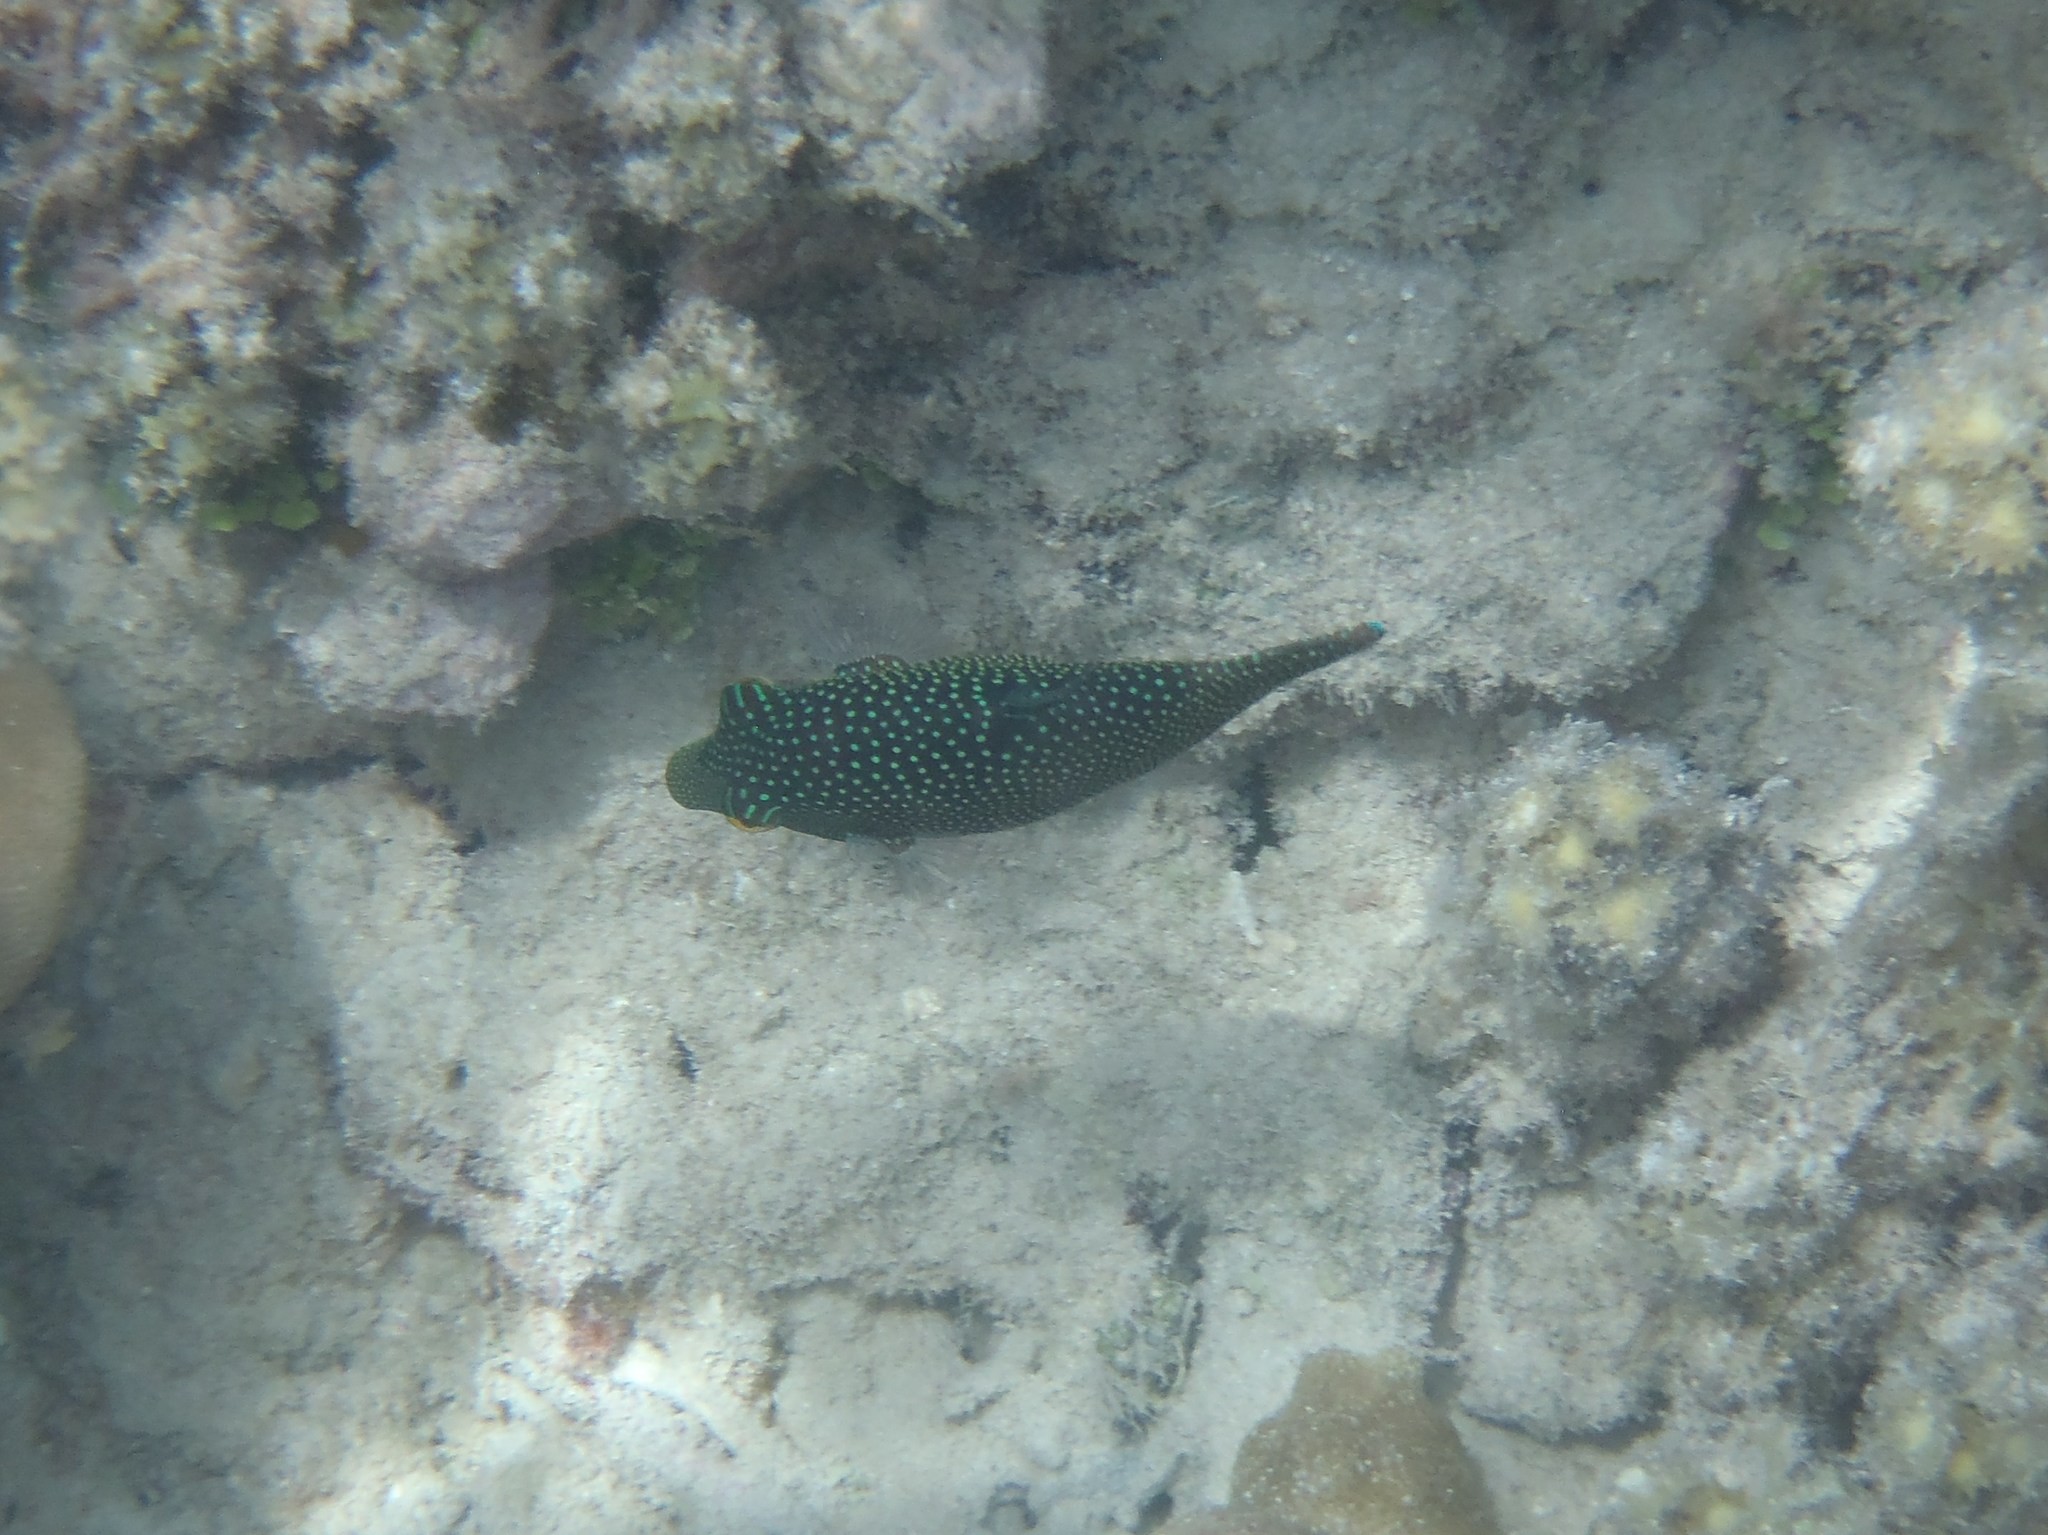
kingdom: Animalia
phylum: Chordata
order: Tetraodontiformes
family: Tetraodontidae
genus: Canthigaster
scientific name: Canthigaster solandri
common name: False-eye toby
